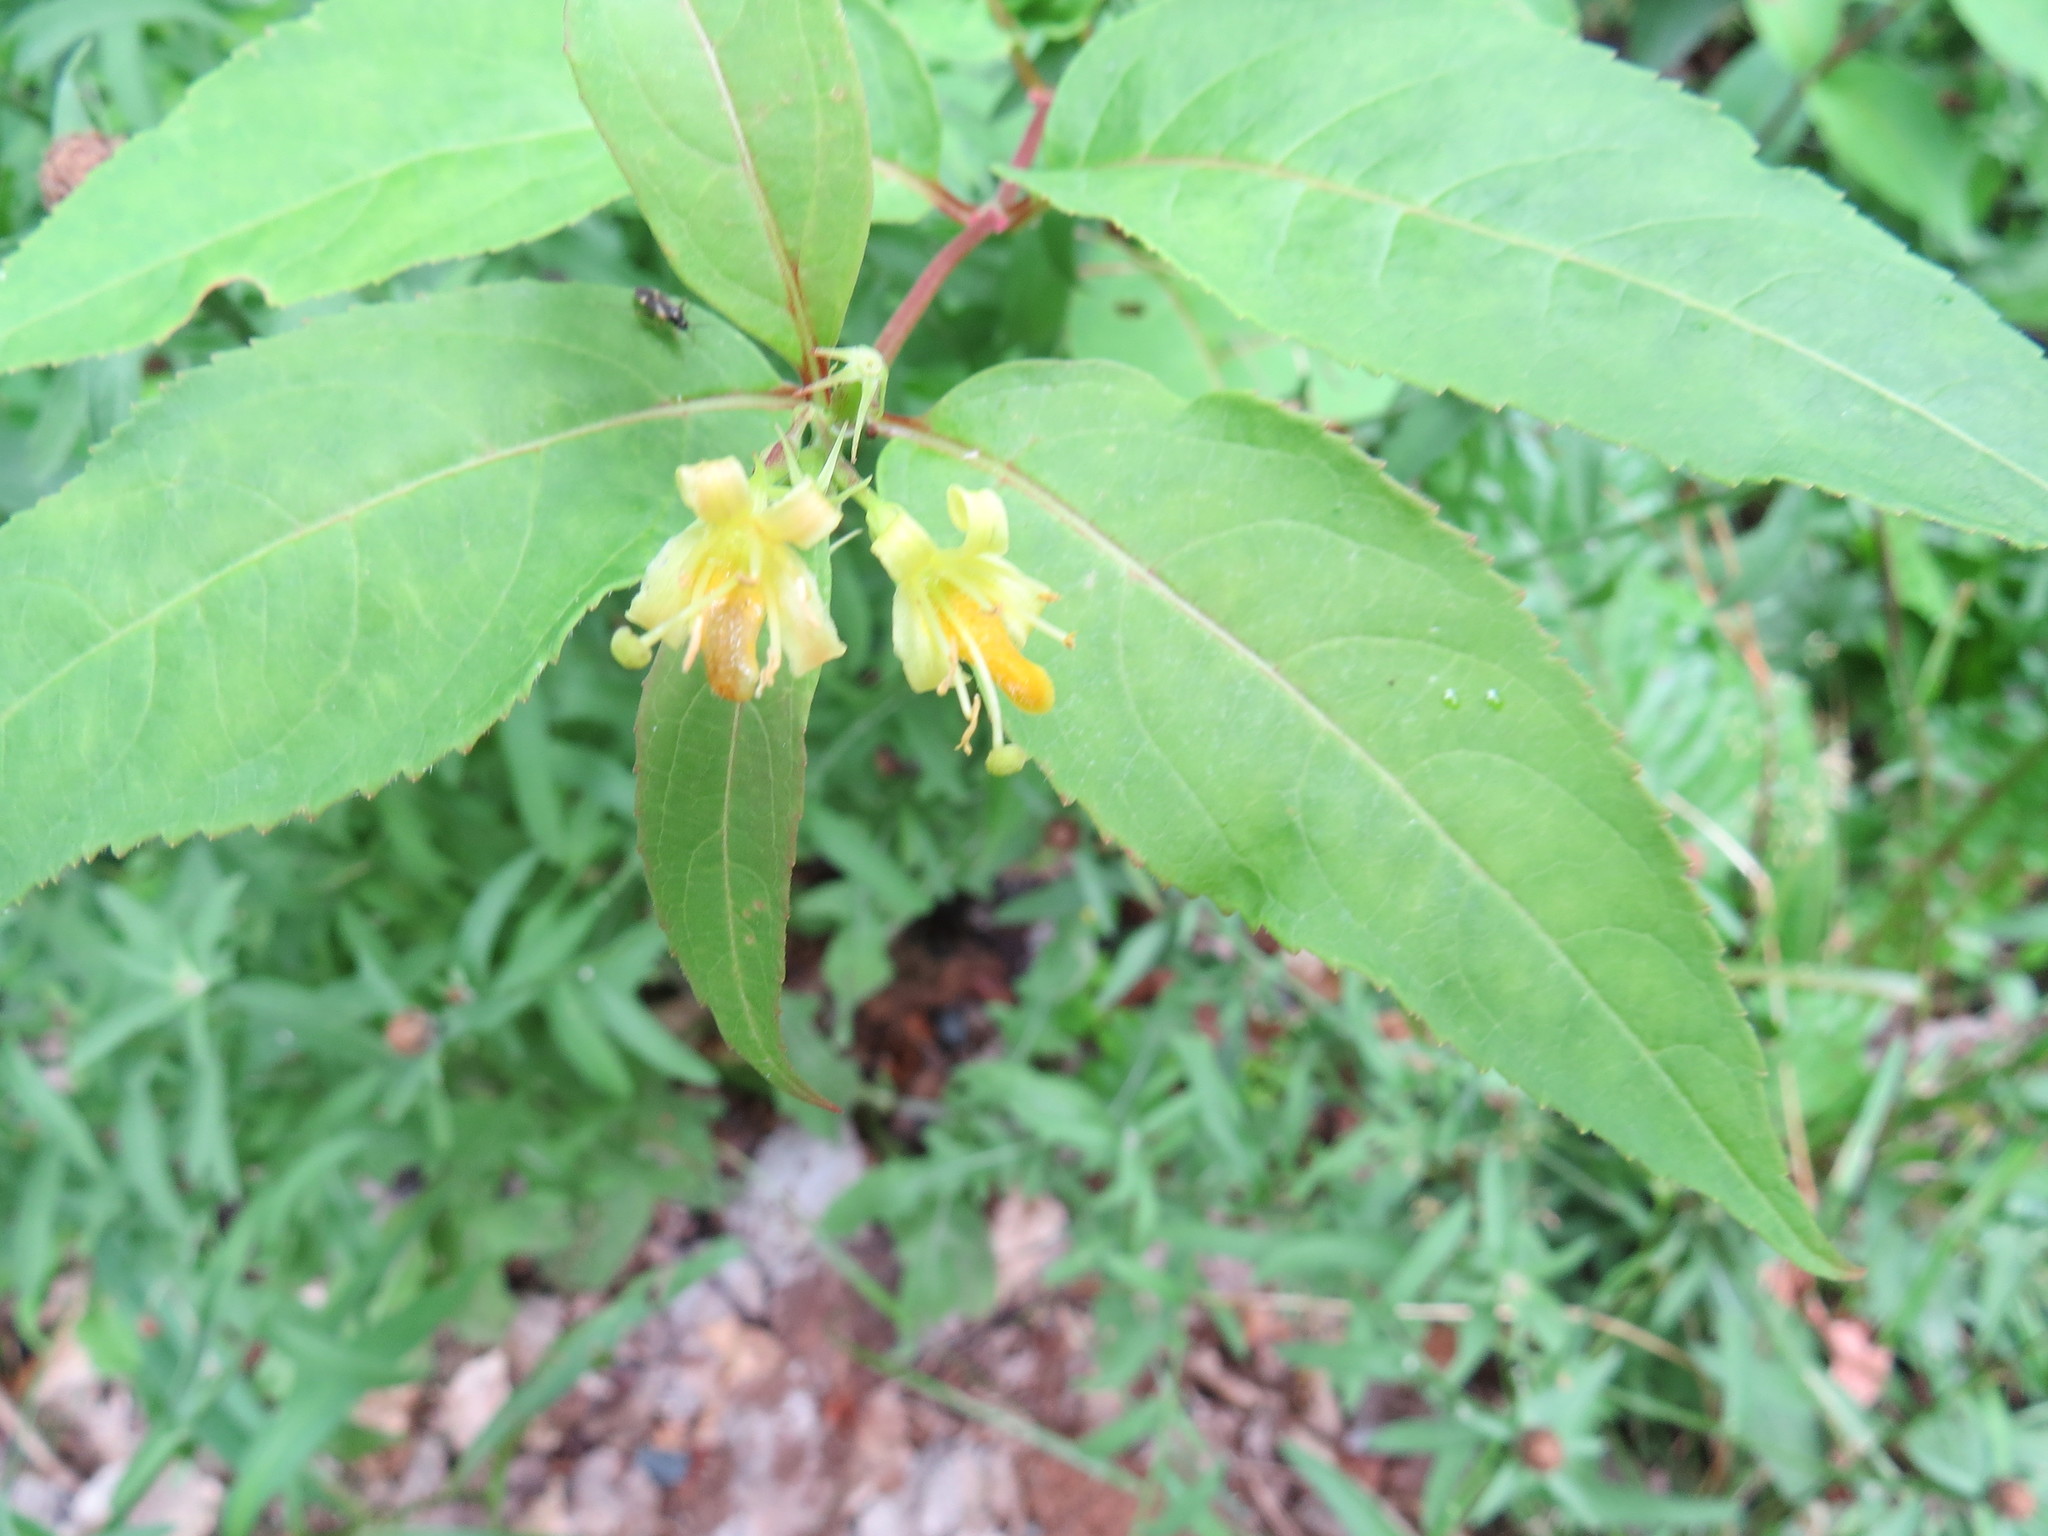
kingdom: Plantae
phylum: Tracheophyta
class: Magnoliopsida
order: Dipsacales
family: Caprifoliaceae
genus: Diervilla
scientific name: Diervilla lonicera
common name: Bush-honeysuckle
